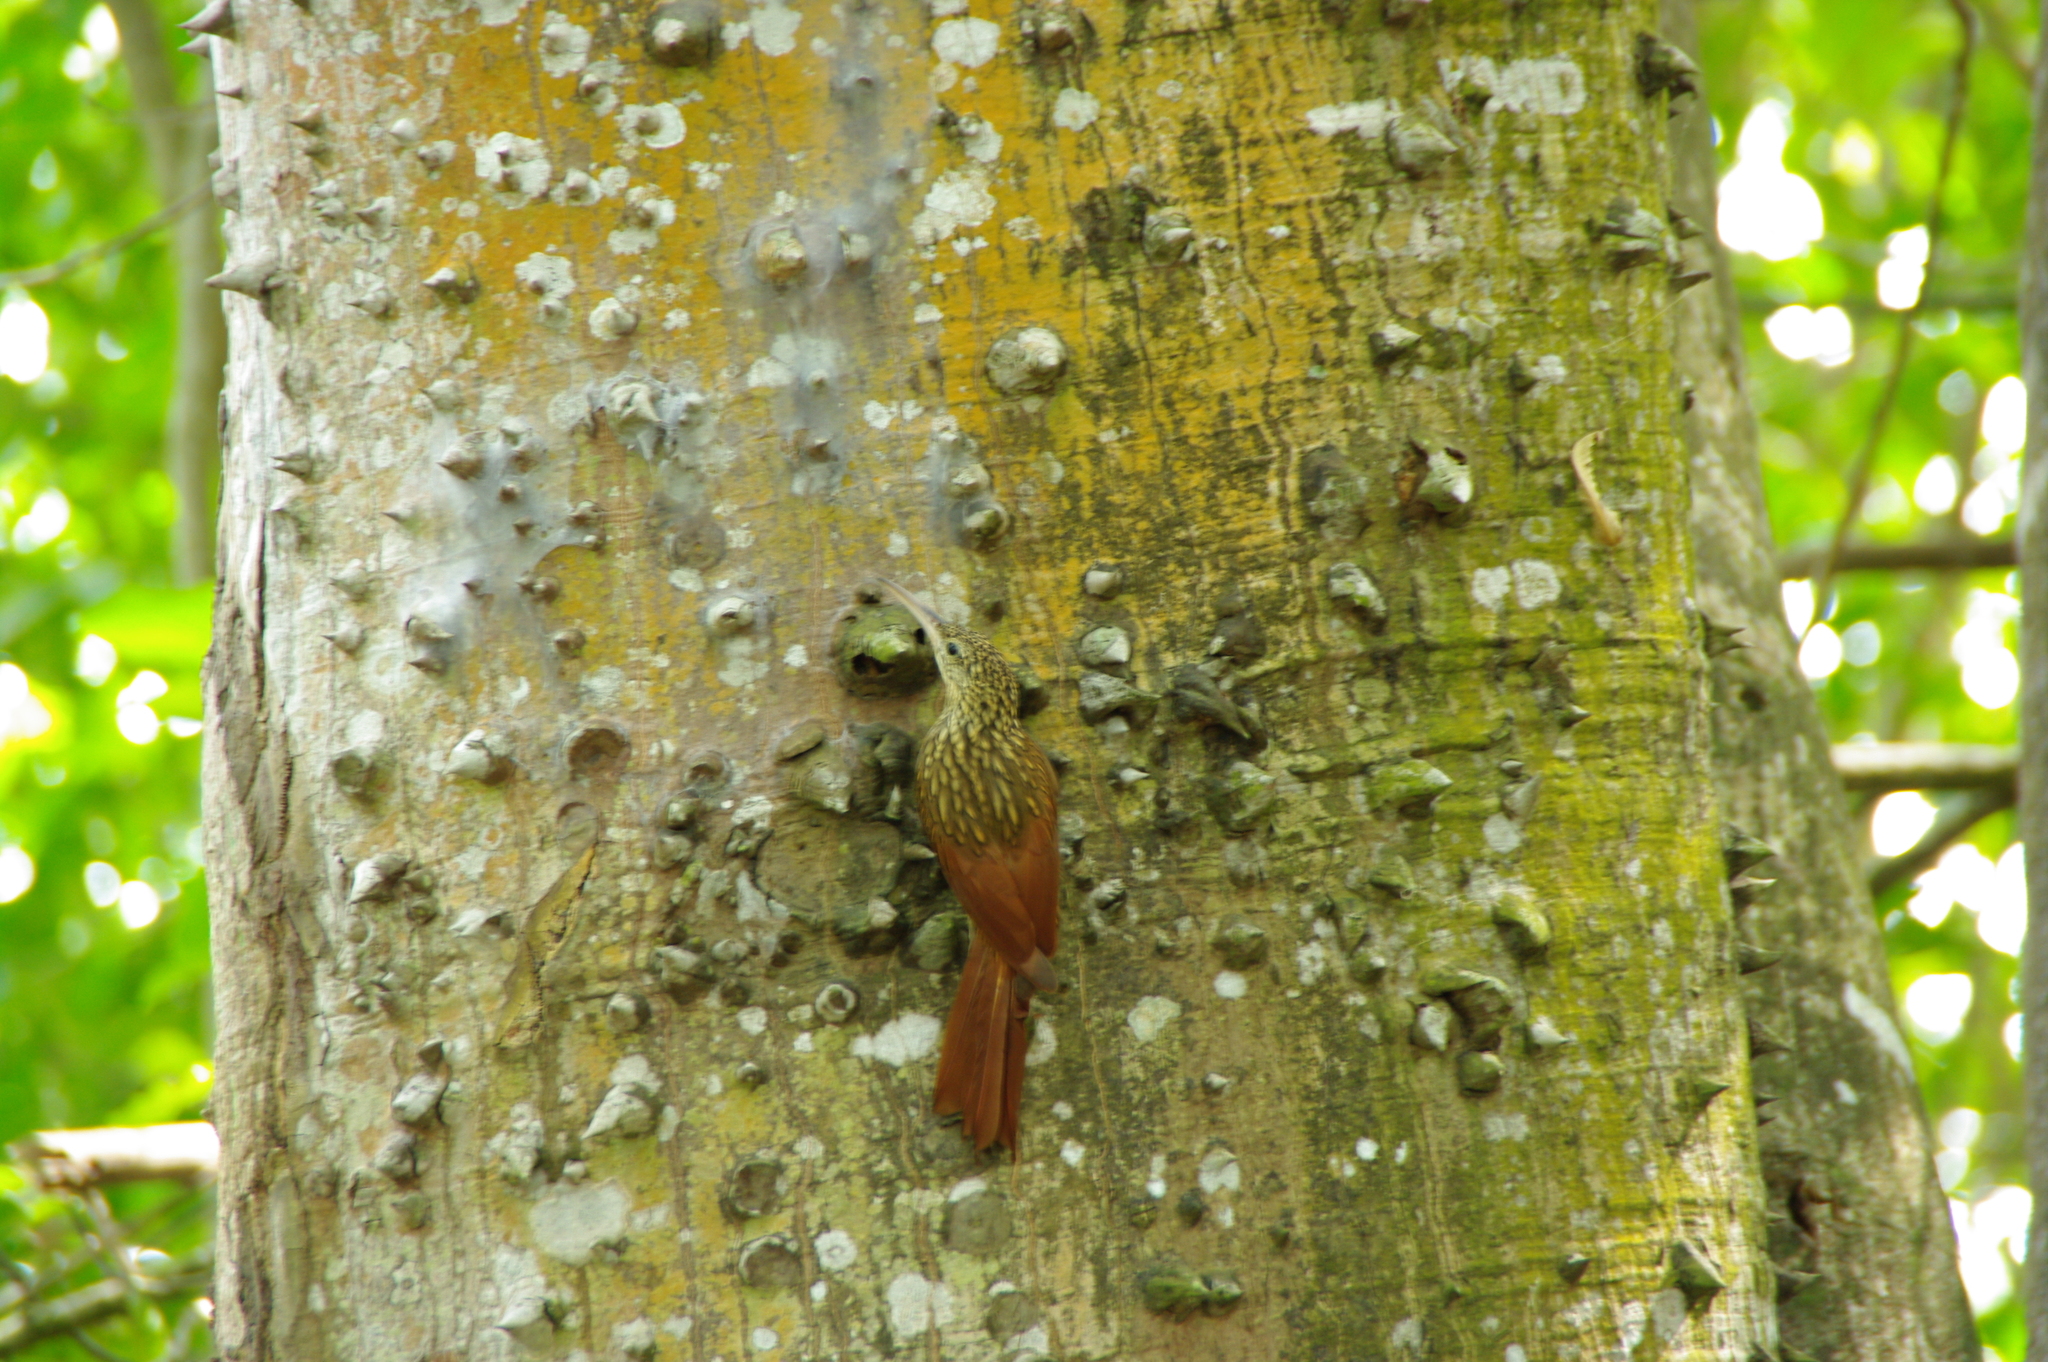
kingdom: Animalia
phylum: Chordata
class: Aves
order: Passeriformes
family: Furnariidae
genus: Xiphorhynchus
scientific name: Xiphorhynchus flavigaster
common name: Ivory-billed woodcreeper
